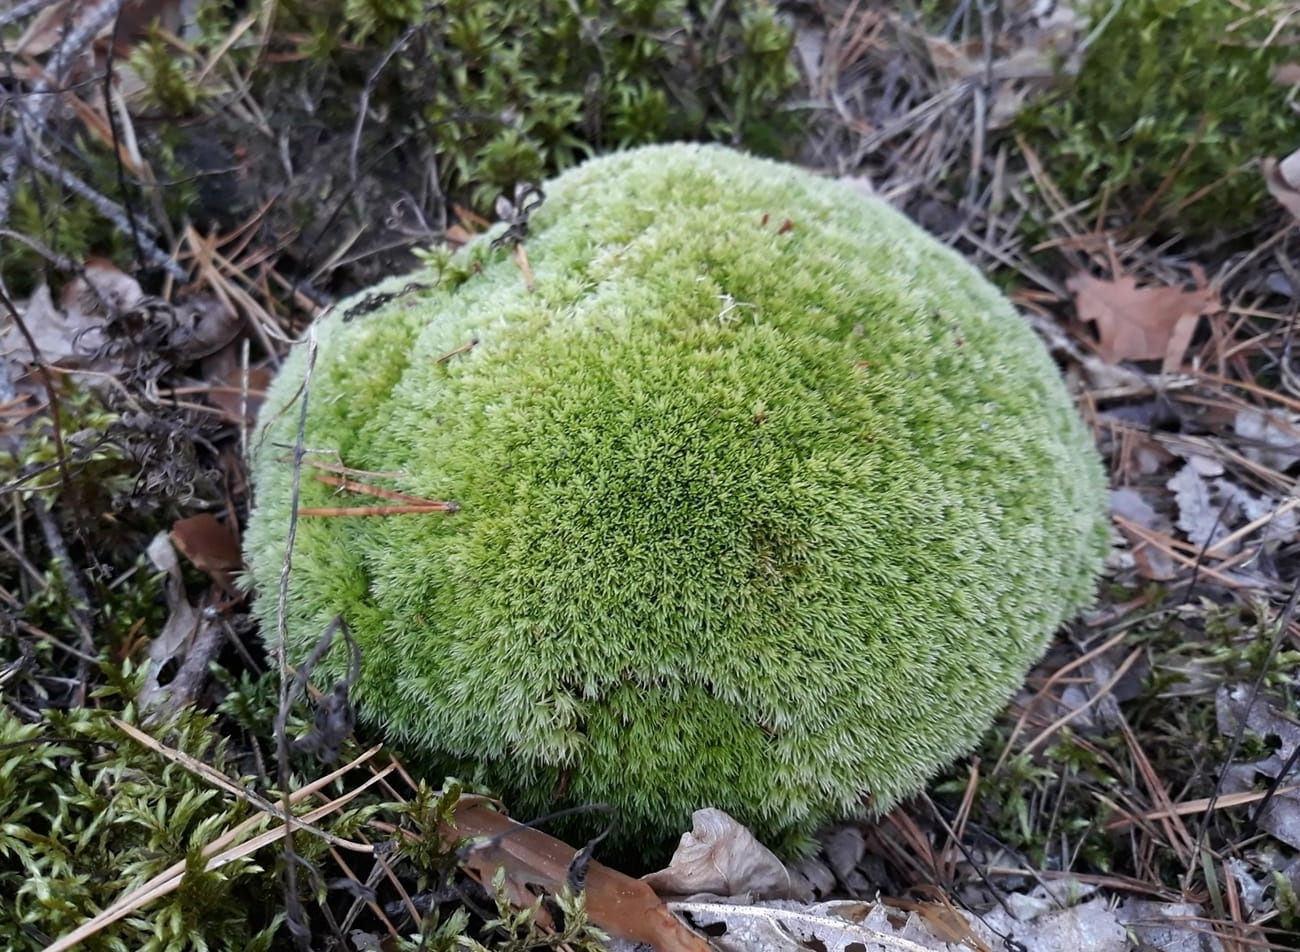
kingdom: Plantae
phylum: Bryophyta
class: Bryopsida
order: Dicranales
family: Leucobryaceae
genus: Leucobryum
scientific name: Leucobryum glaucum
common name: Large white-moss
